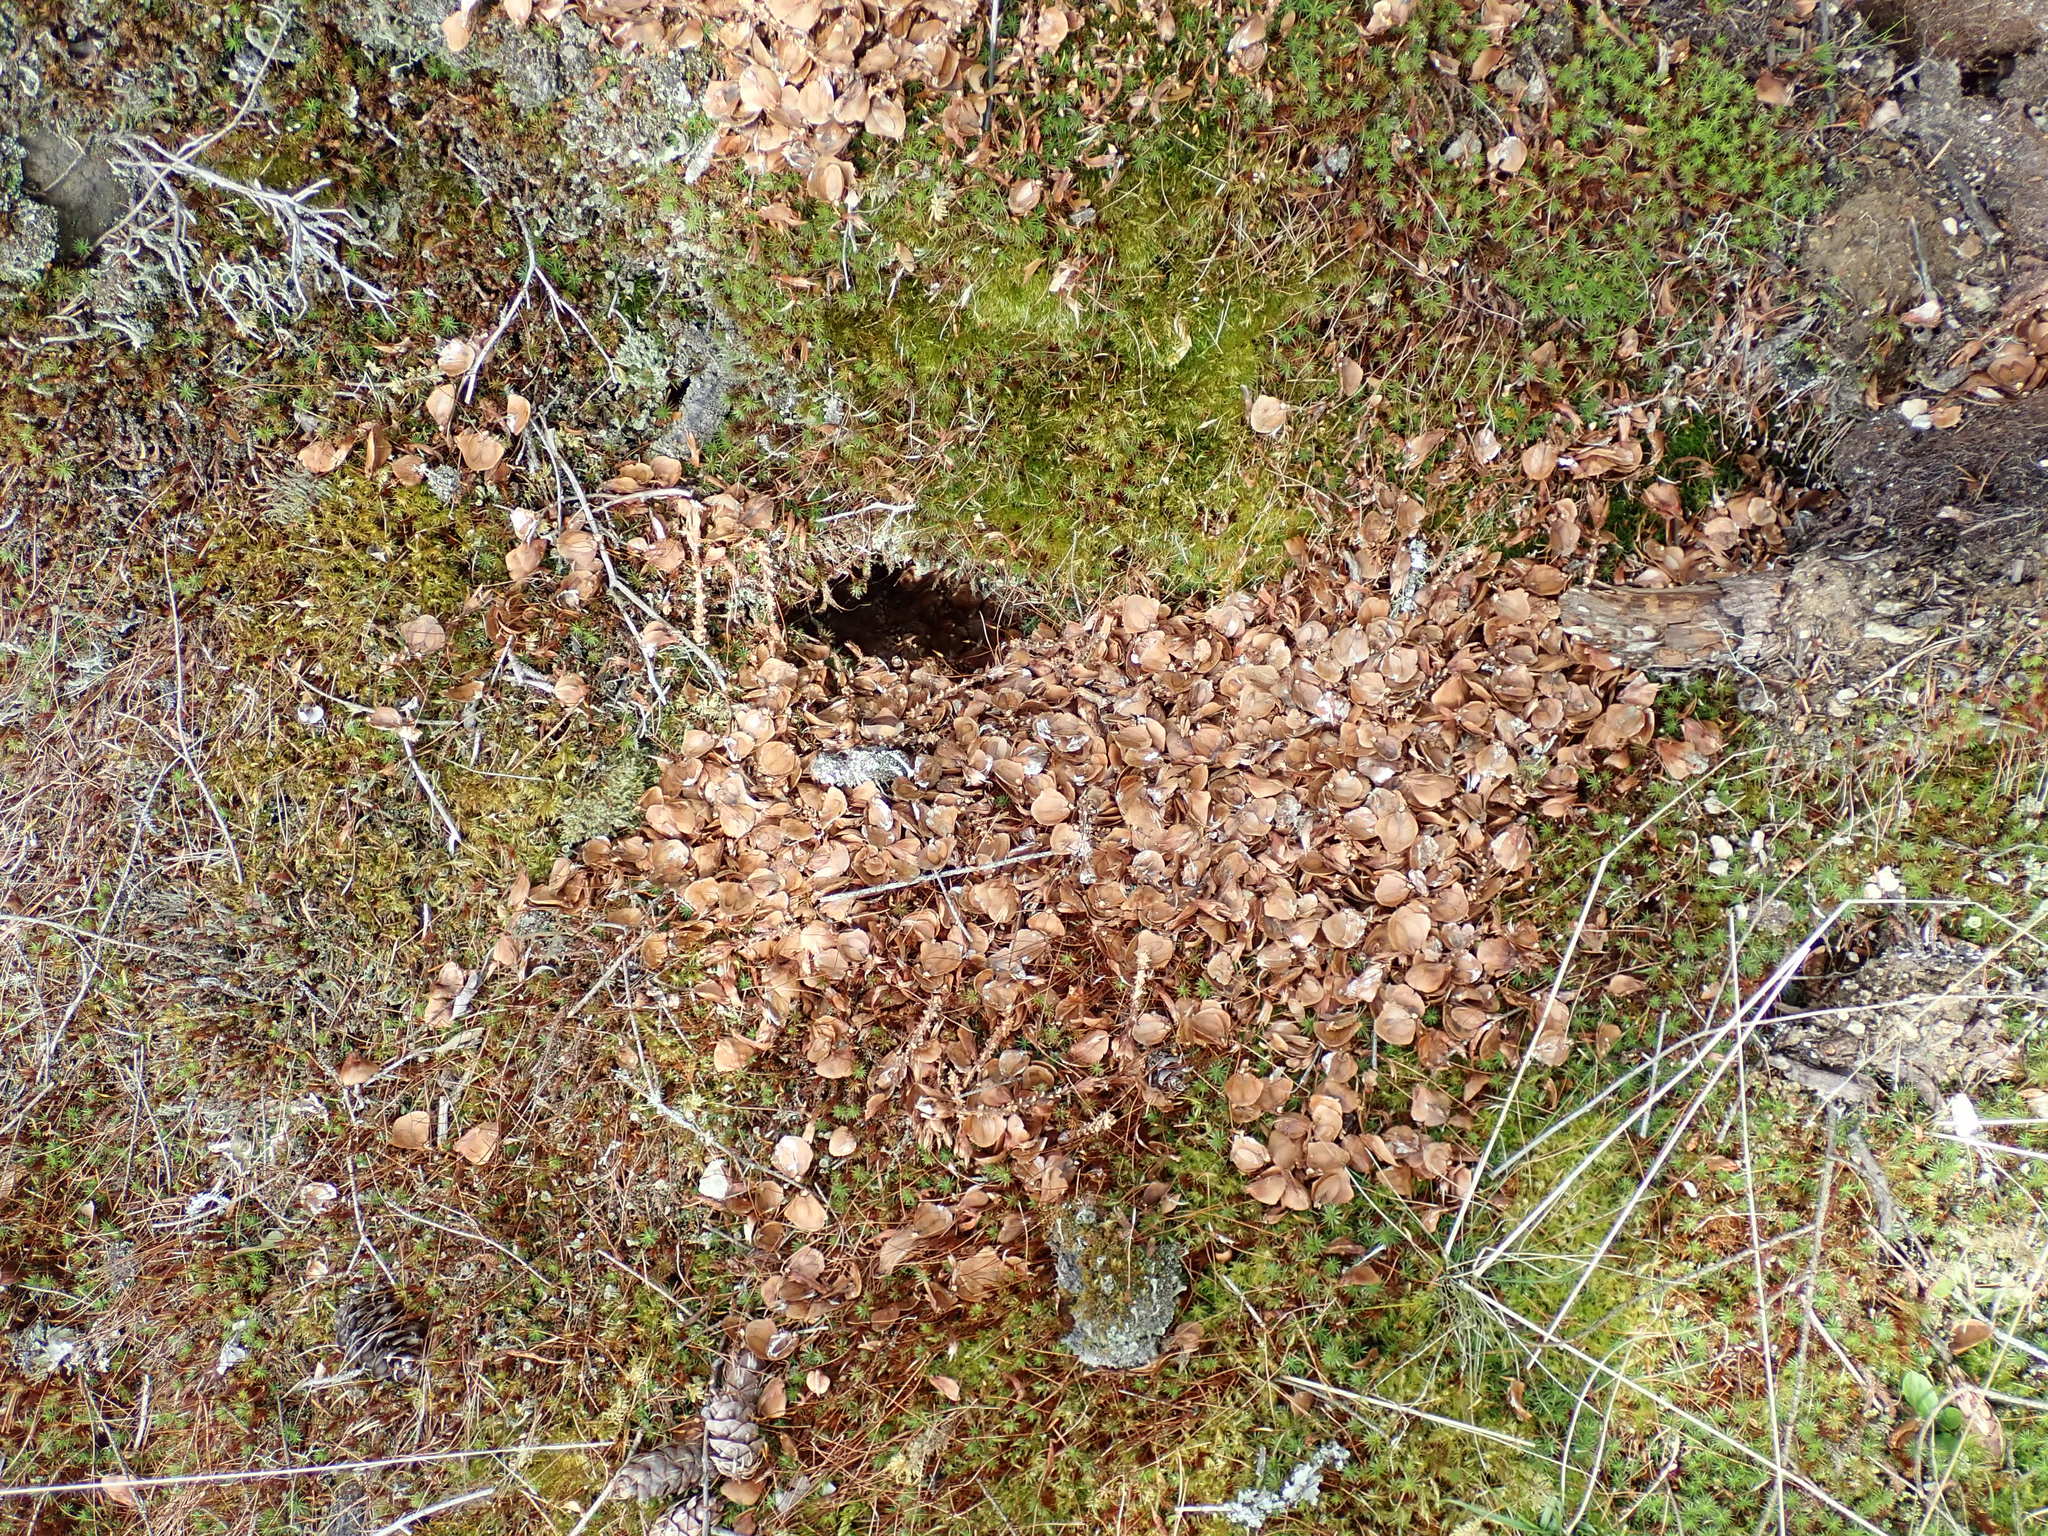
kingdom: Animalia
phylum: Chordata
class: Mammalia
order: Rodentia
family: Sciuridae
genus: Tamiasciurus
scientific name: Tamiasciurus hudsonicus
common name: Red squirrel
